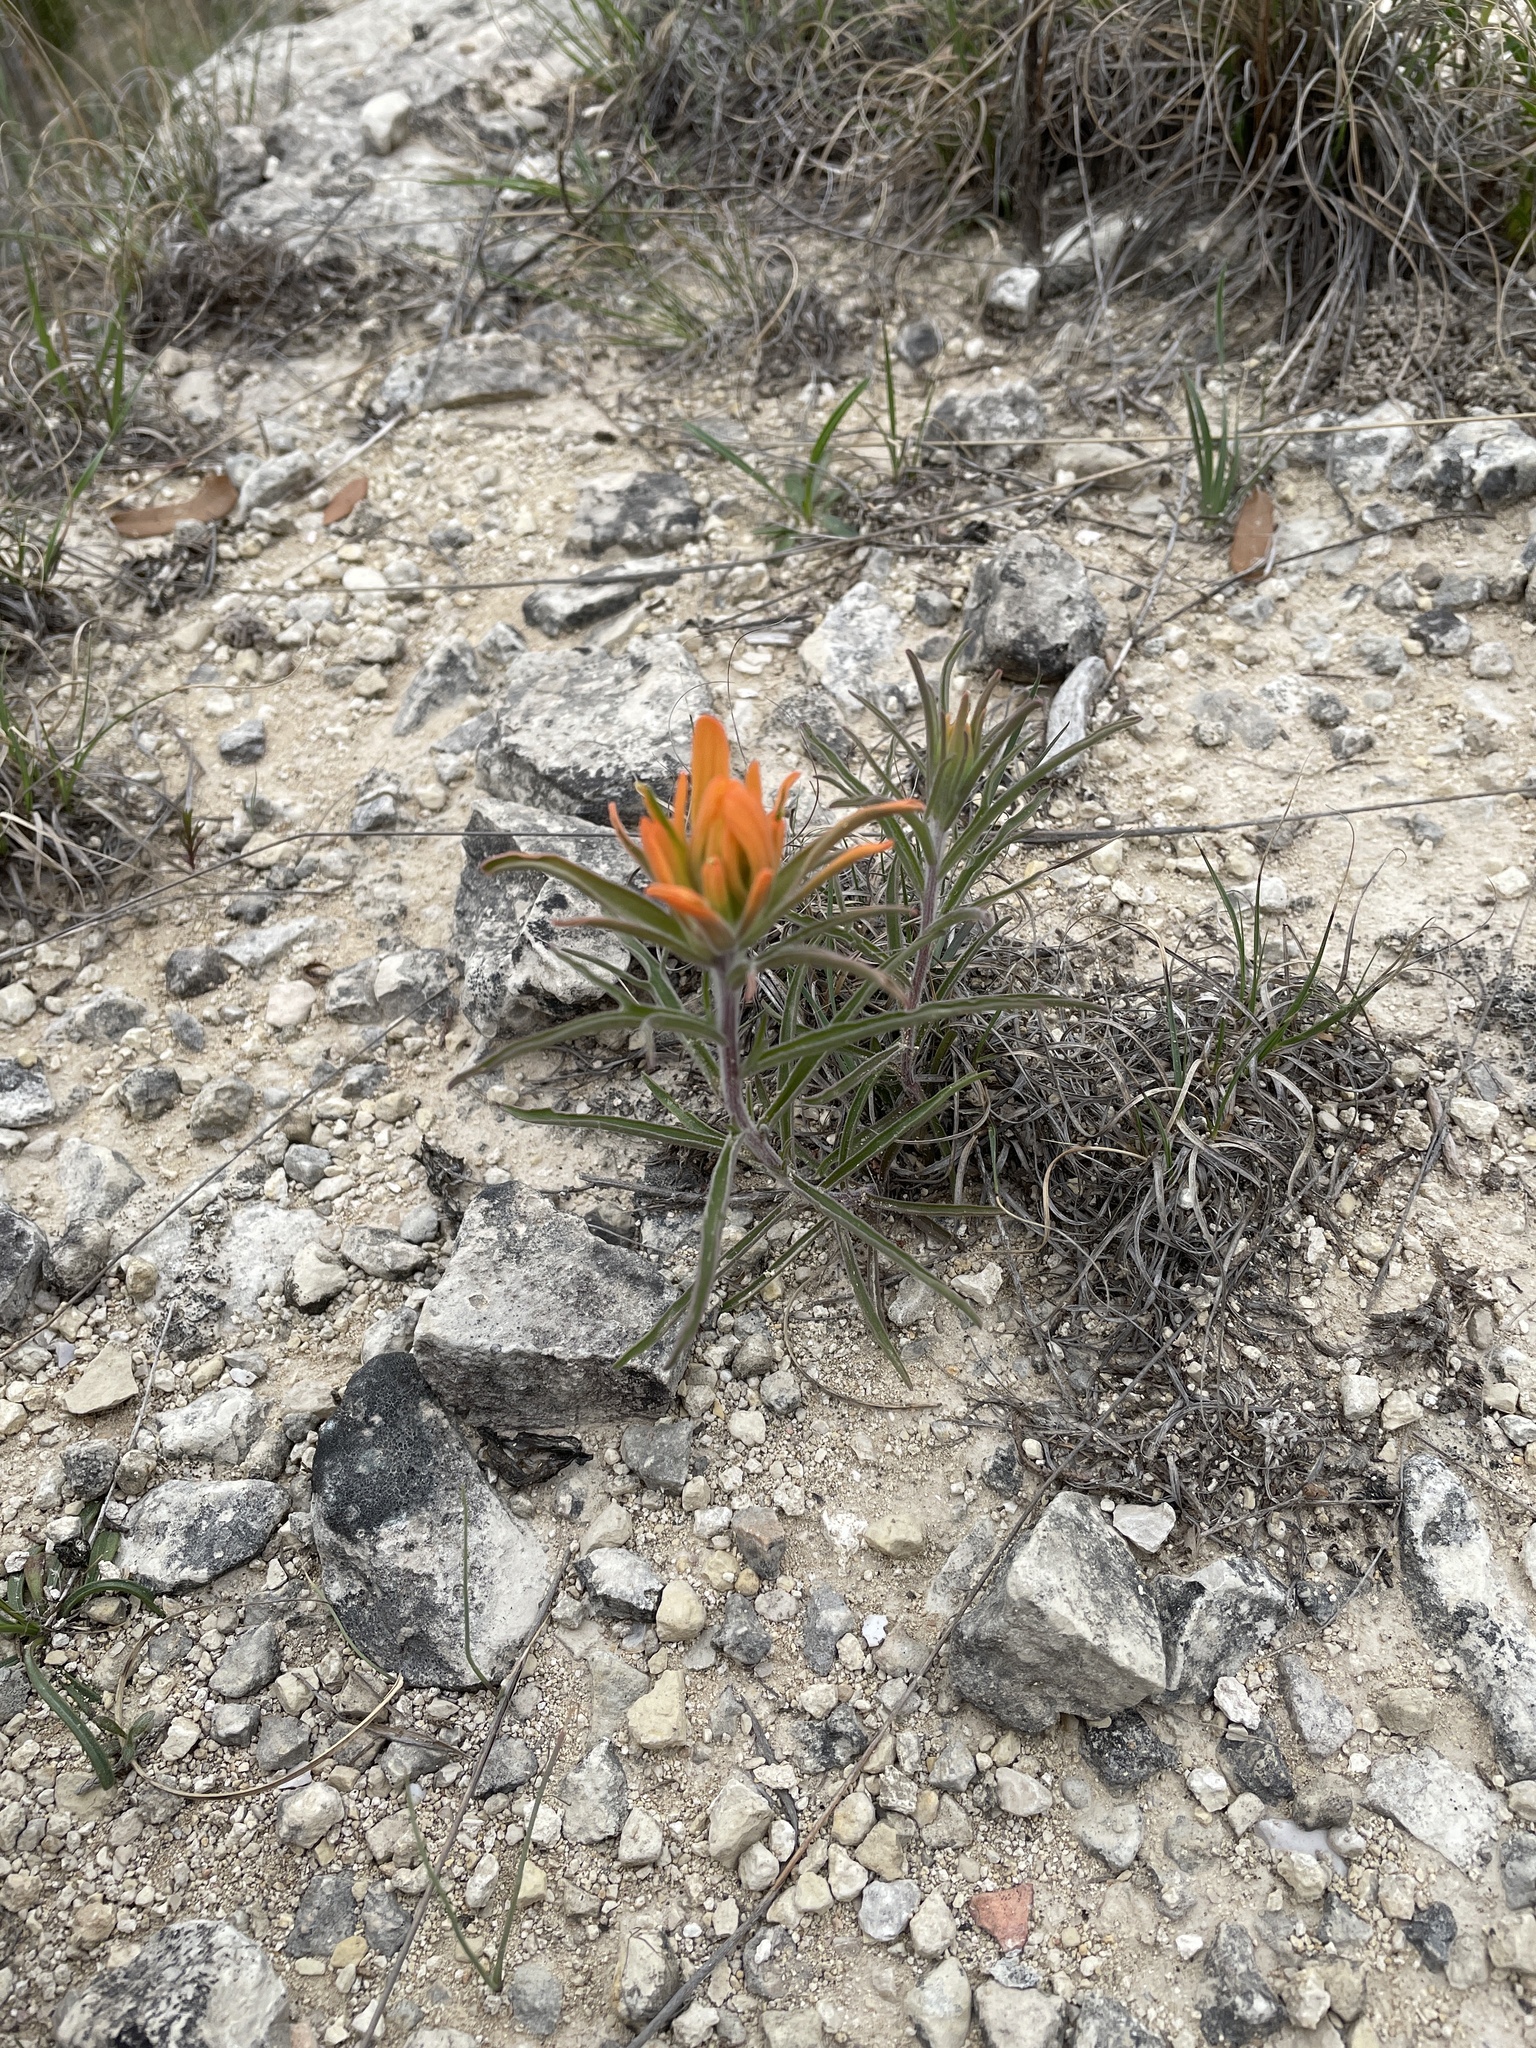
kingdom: Plantae
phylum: Tracheophyta
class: Magnoliopsida
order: Lamiales
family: Orobanchaceae
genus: Castilleja
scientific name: Castilleja lindheimeri
